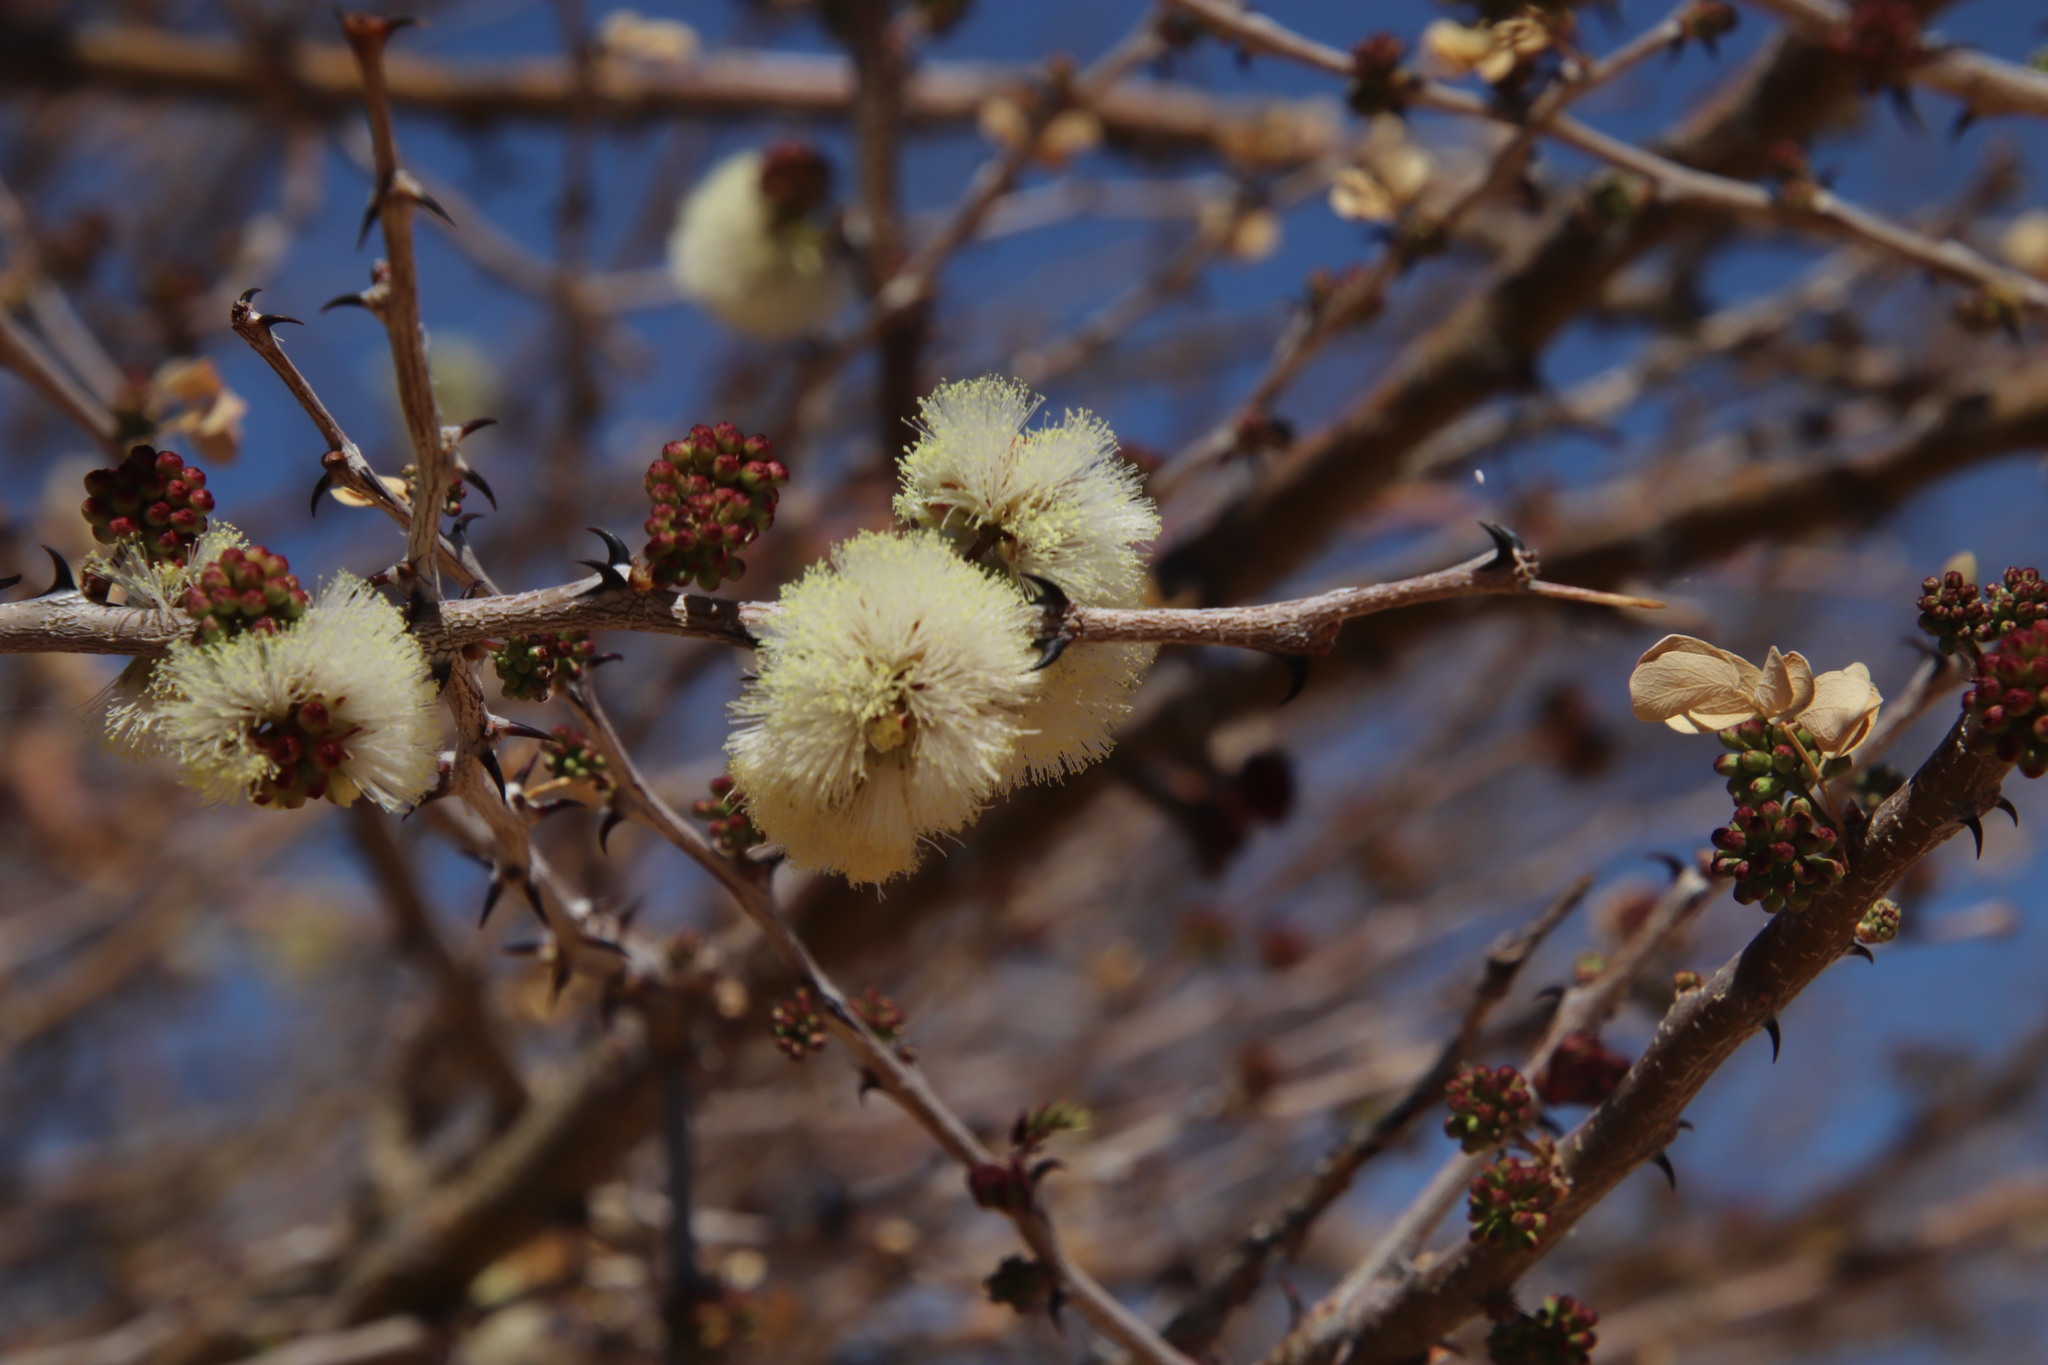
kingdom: Plantae
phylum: Tracheophyta
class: Magnoliopsida
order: Fabales
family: Fabaceae
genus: Senegalia
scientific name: Senegalia mellifera
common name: Hookthorn
